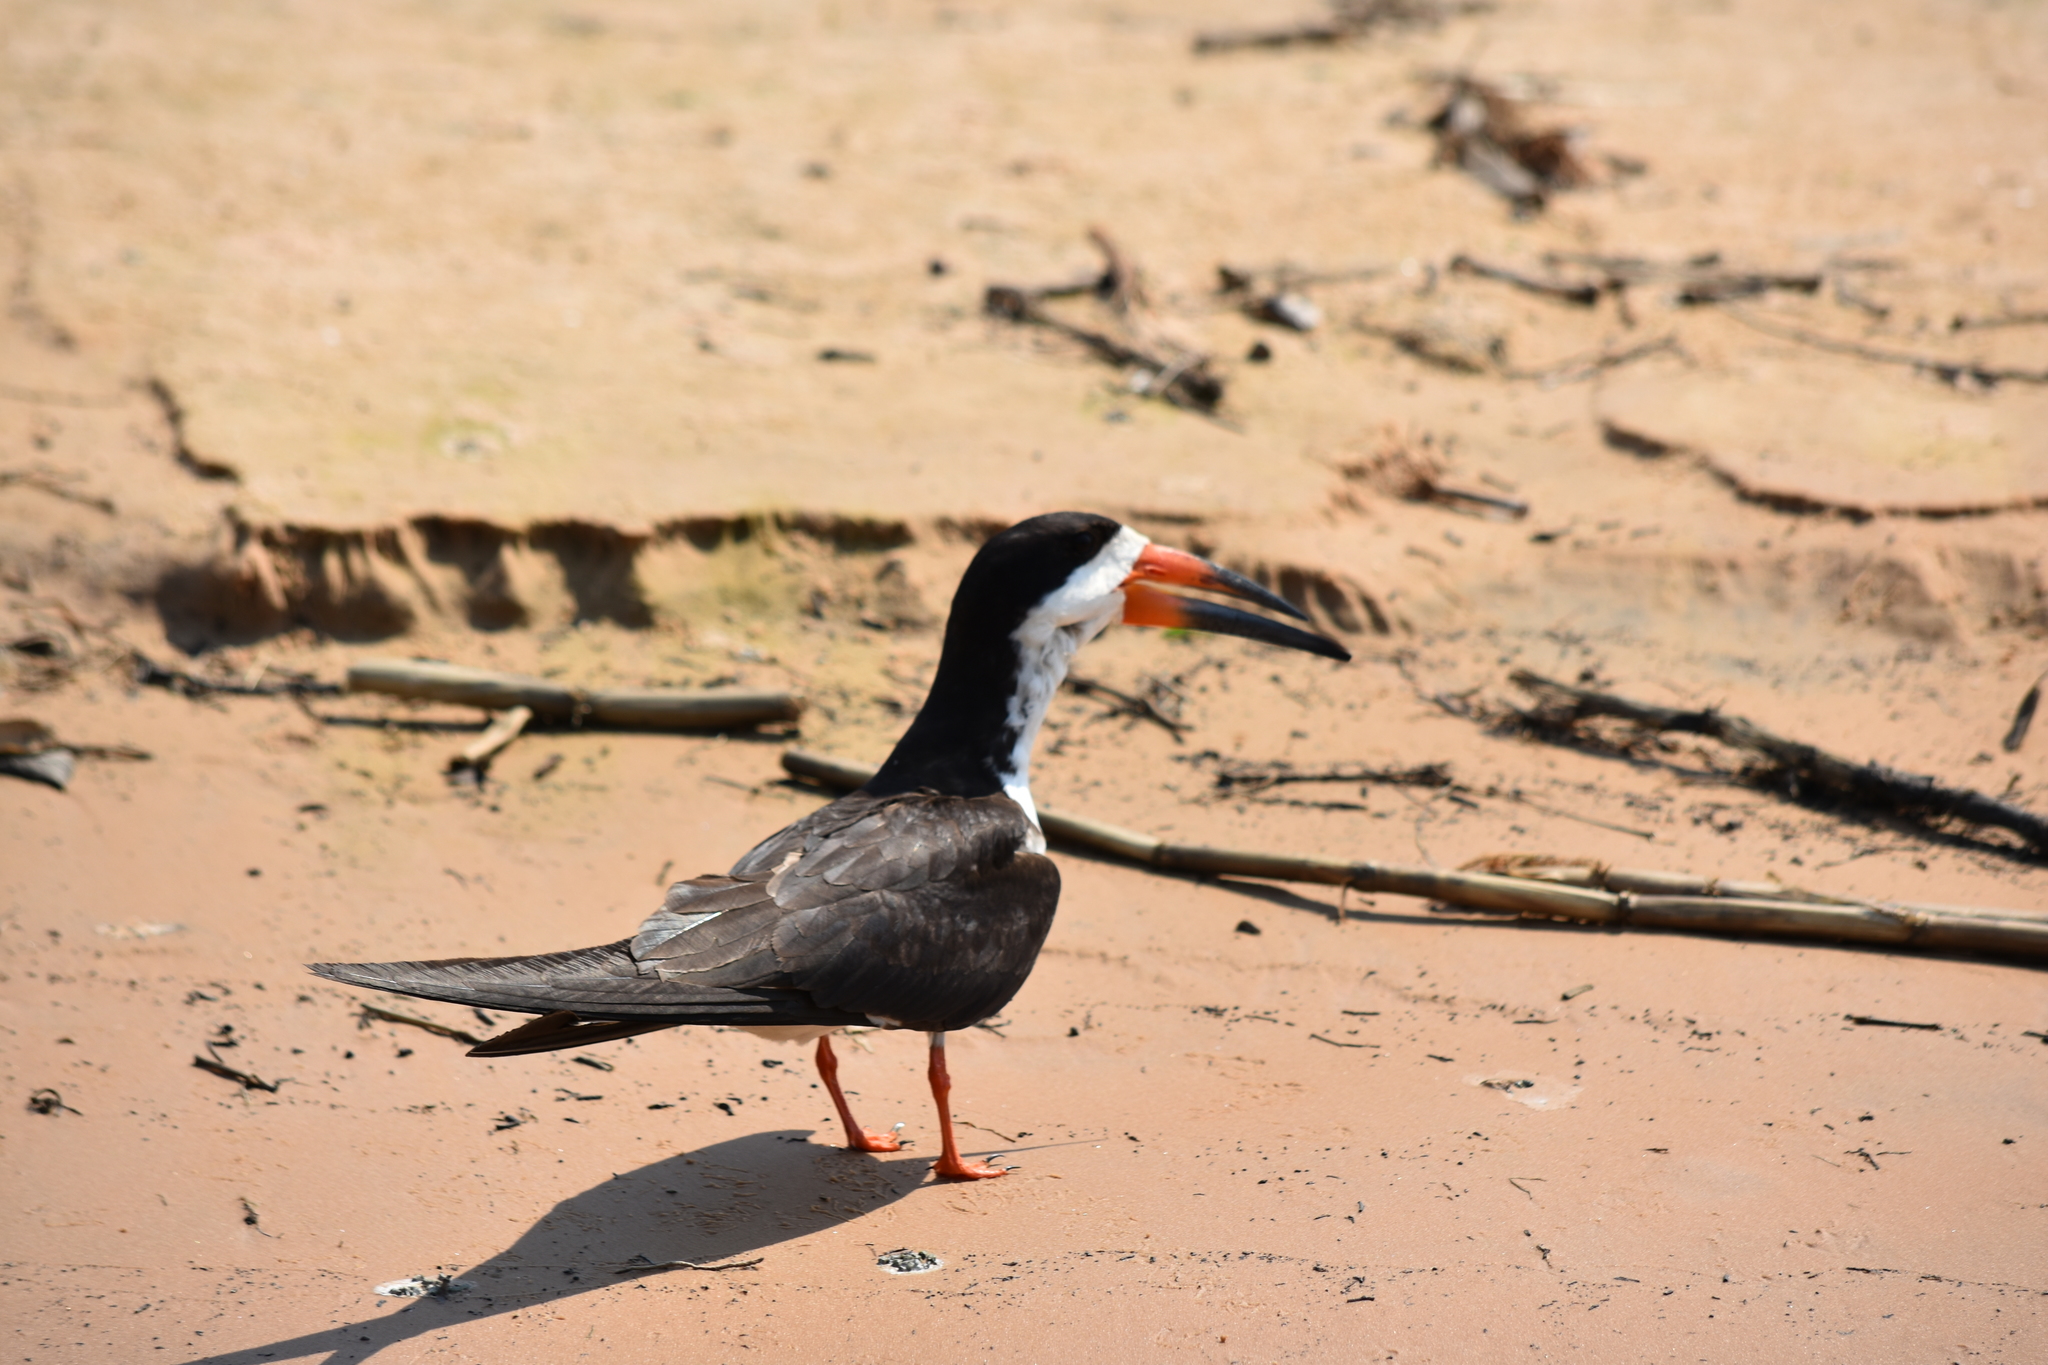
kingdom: Animalia
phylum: Chordata
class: Aves
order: Charadriiformes
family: Laridae
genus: Rynchops
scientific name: Rynchops niger
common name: Black skimmer
